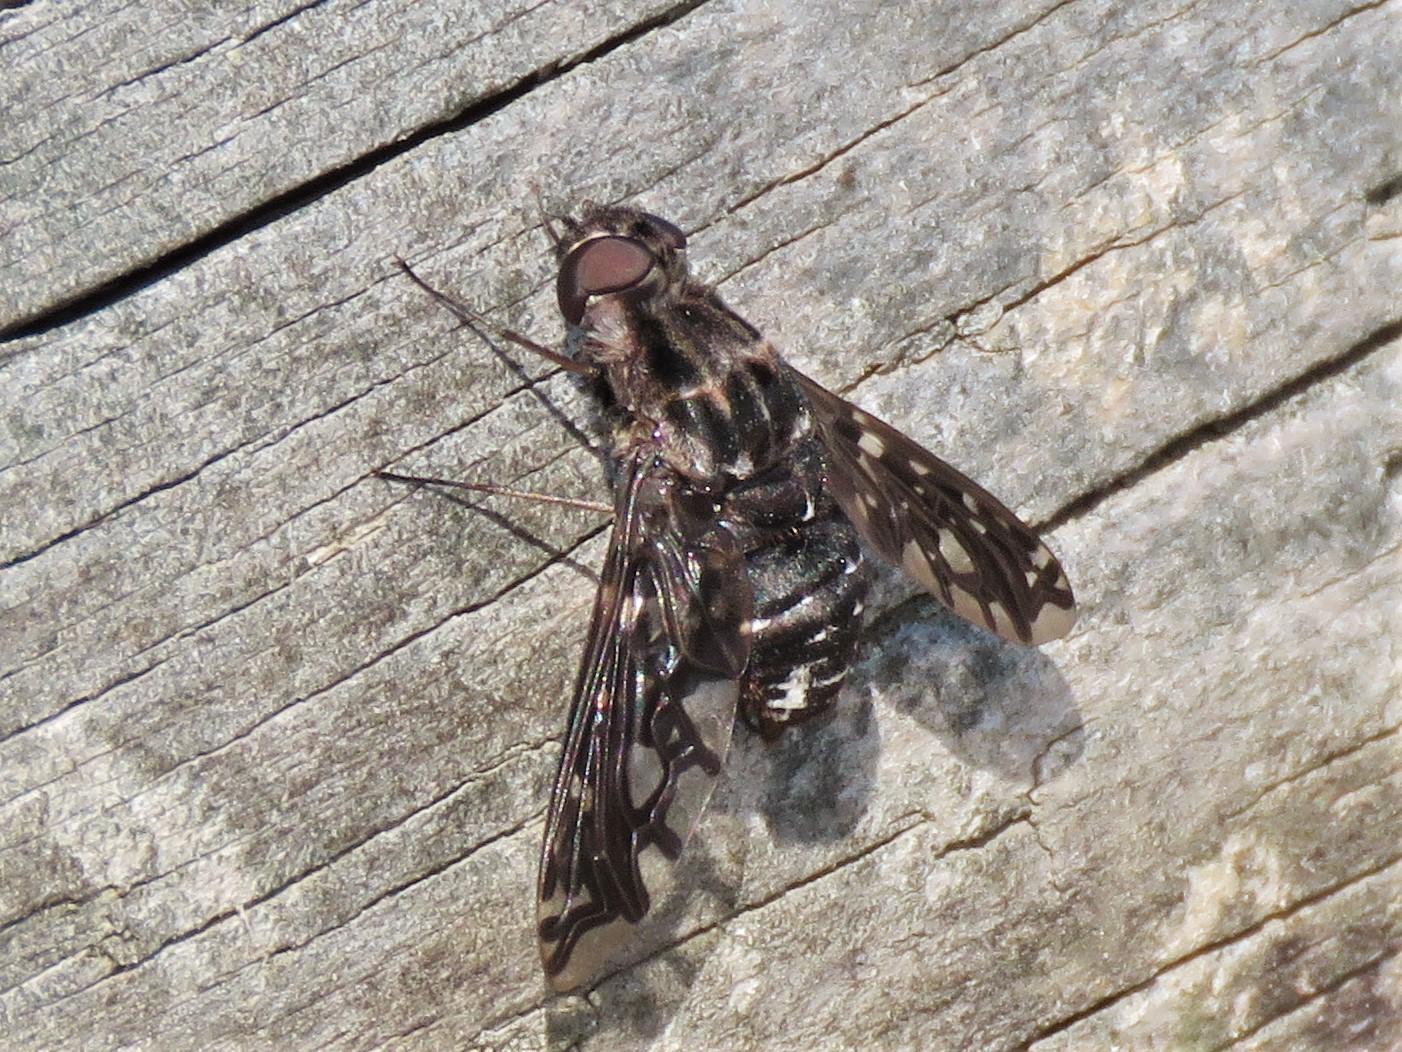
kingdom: Animalia
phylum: Arthropoda
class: Insecta
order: Diptera
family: Bombyliidae
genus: Xenox
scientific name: Xenox tigrinus
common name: Tiger bee fly
